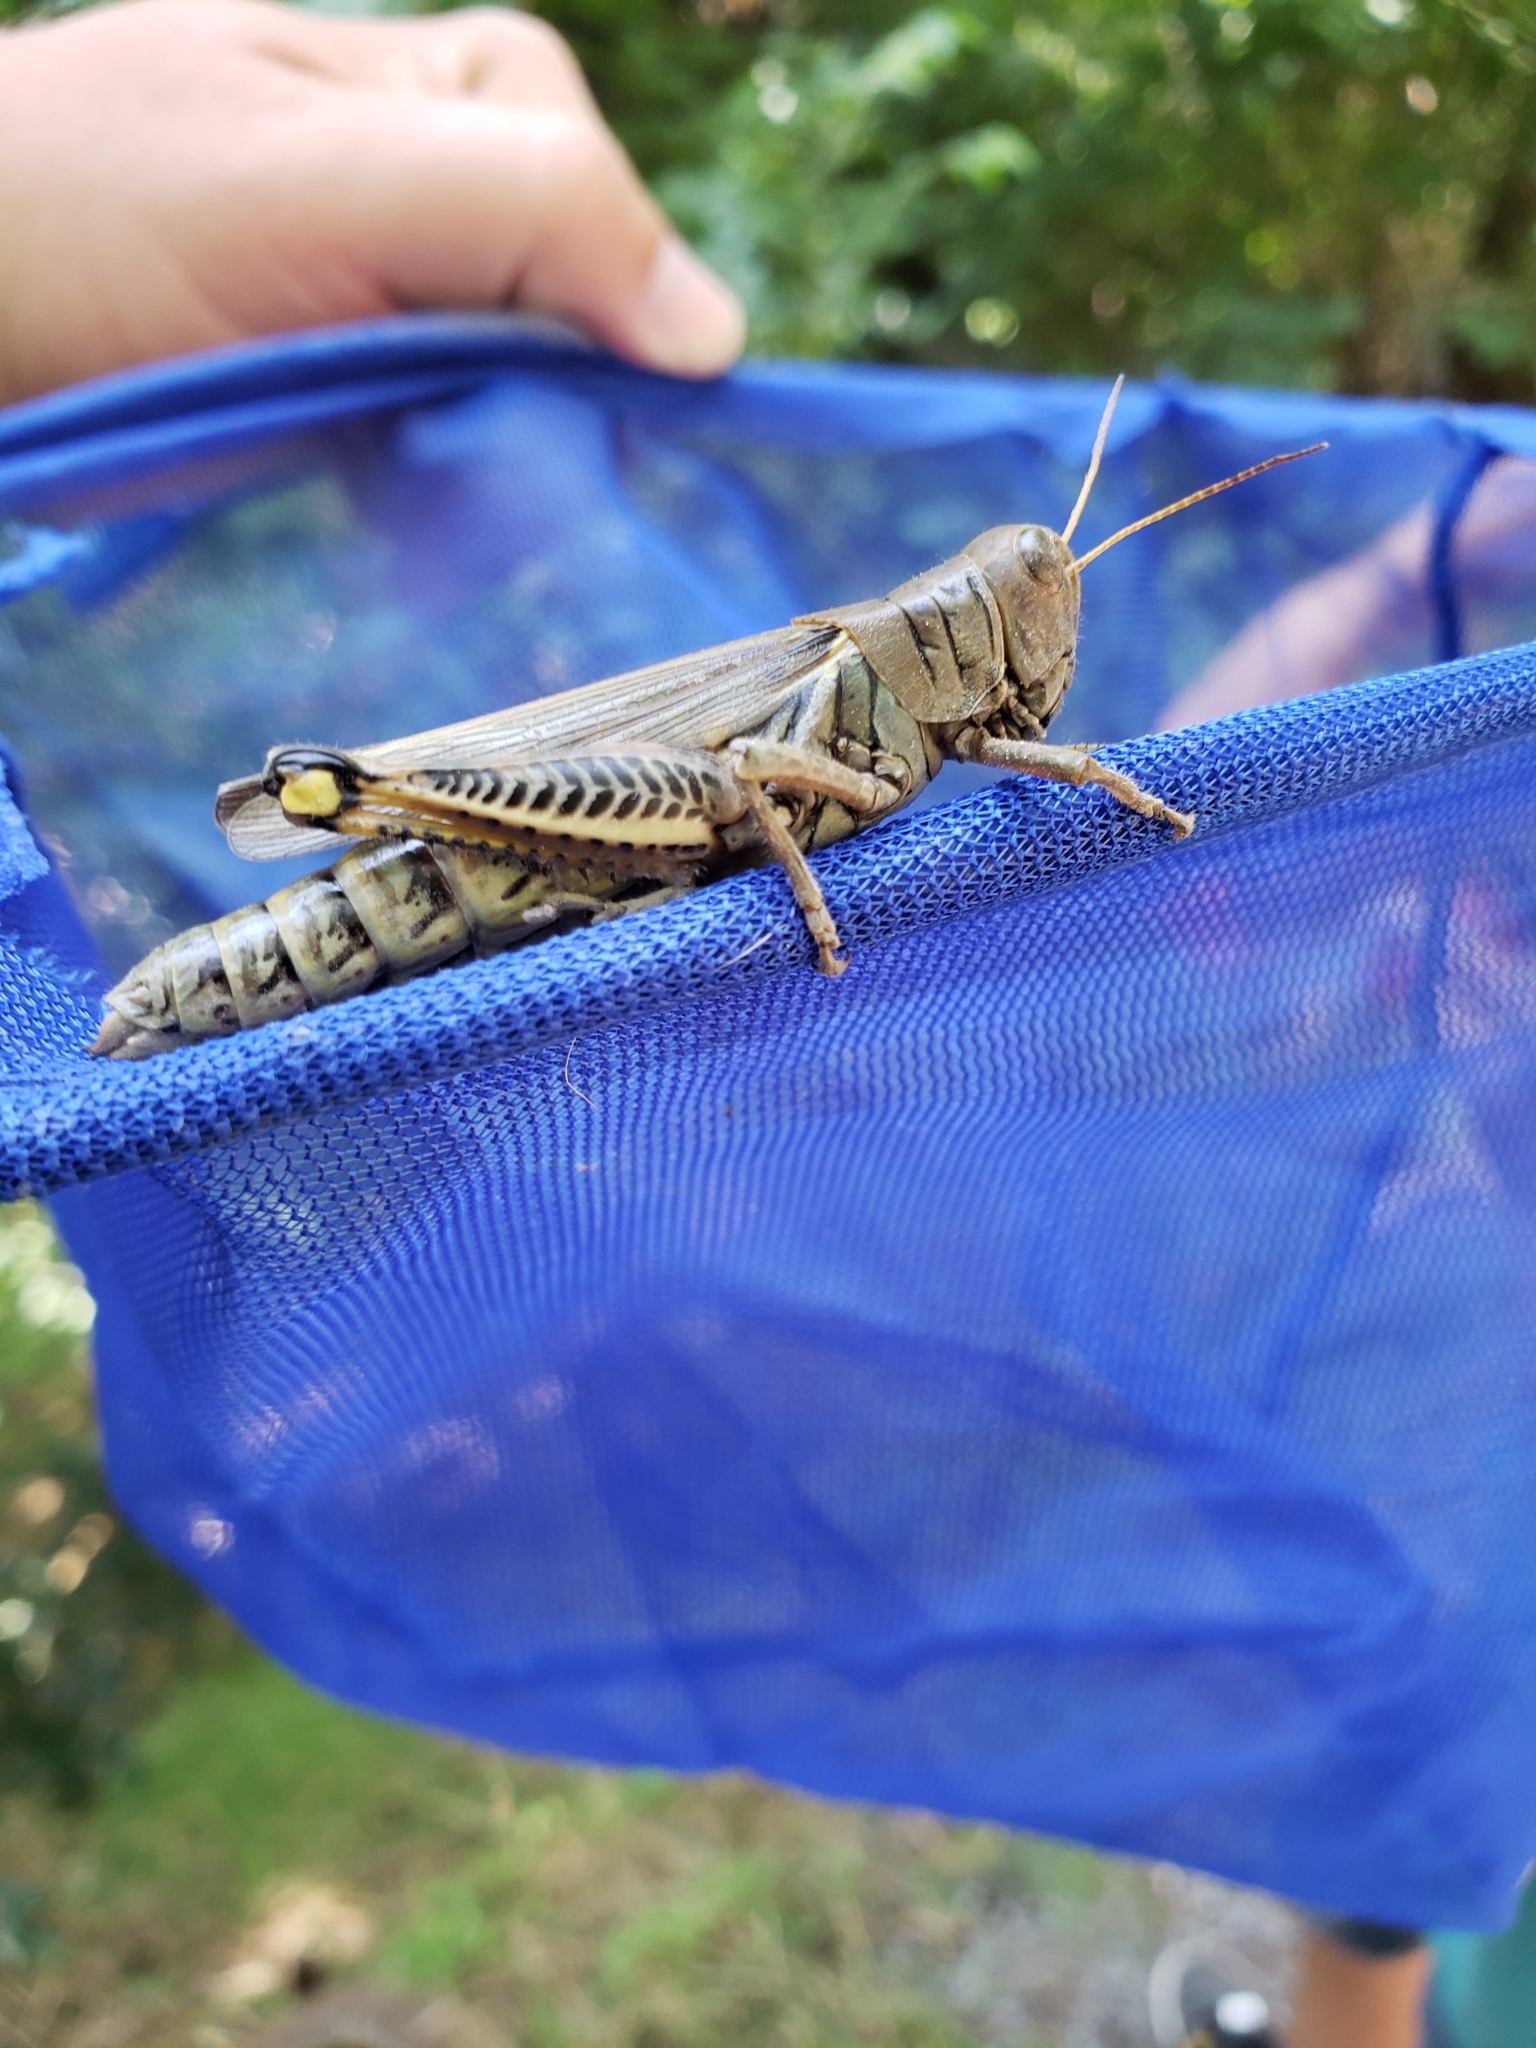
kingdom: Animalia
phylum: Arthropoda
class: Insecta
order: Orthoptera
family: Acrididae
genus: Melanoplus
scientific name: Melanoplus differentialis
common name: Differential grasshopper
